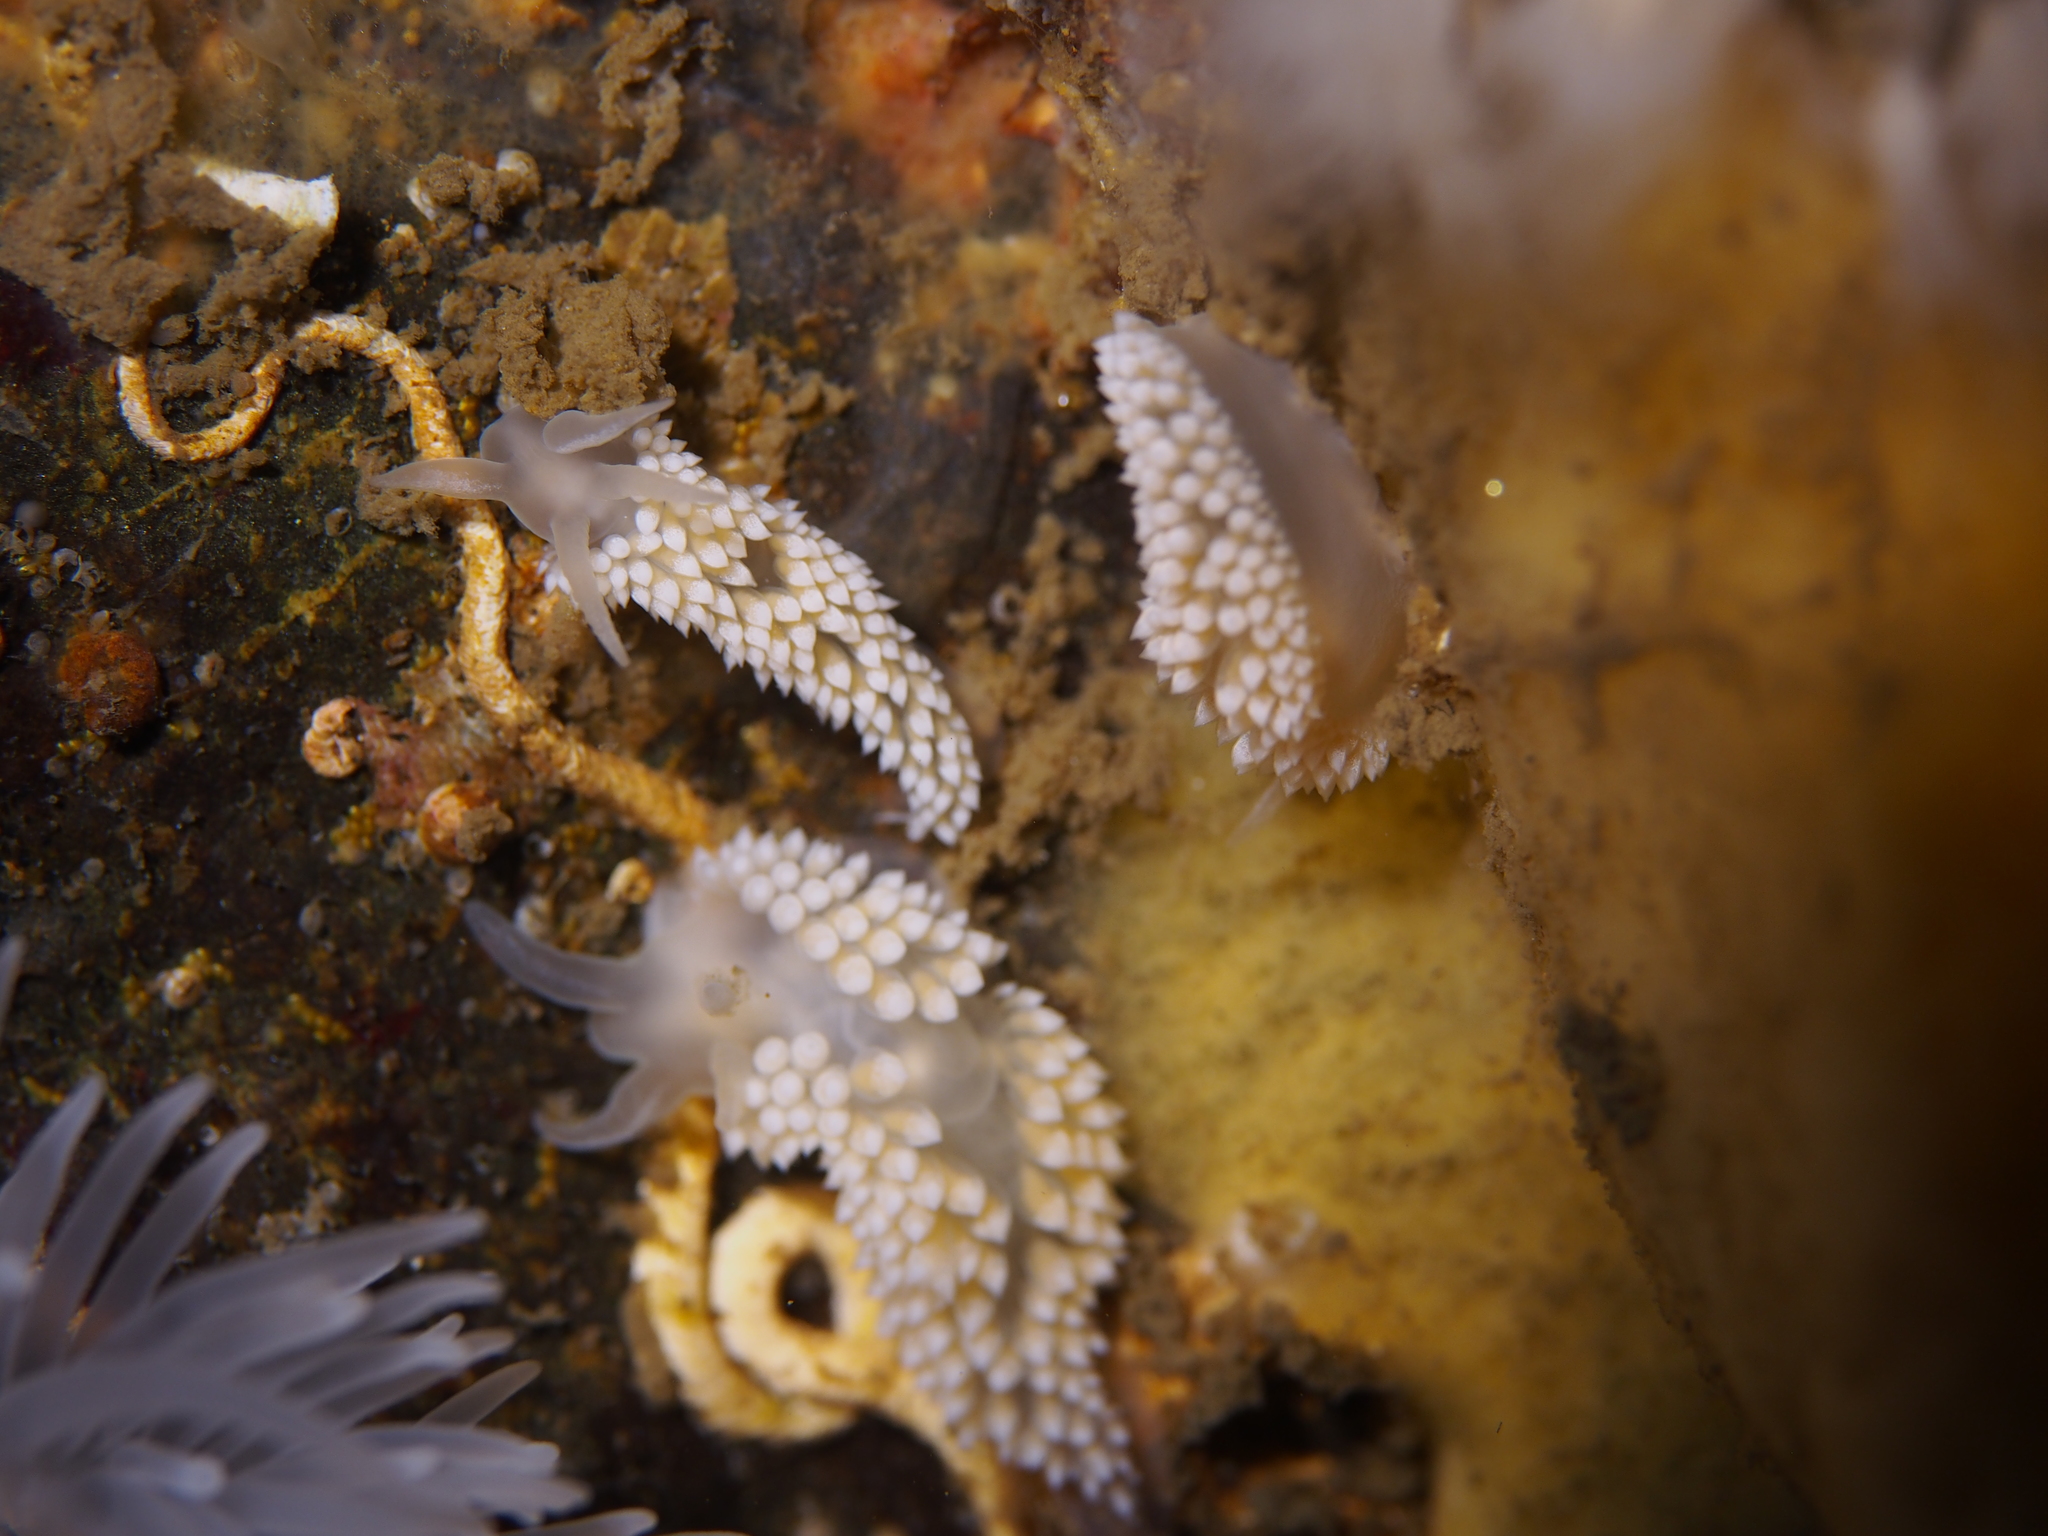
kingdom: Animalia
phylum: Mollusca
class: Gastropoda
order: Nudibranchia
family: Coryphellidae
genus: Coryphella
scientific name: Coryphella verrucosa
